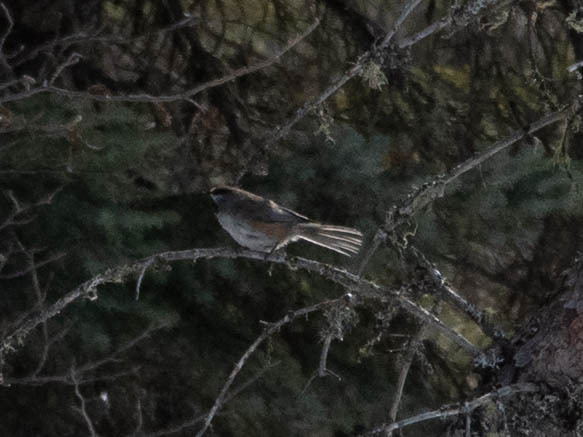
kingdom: Animalia
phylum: Chordata
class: Aves
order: Passeriformes
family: Paridae
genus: Poecile
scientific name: Poecile hudsonicus
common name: Boreal chickadee
